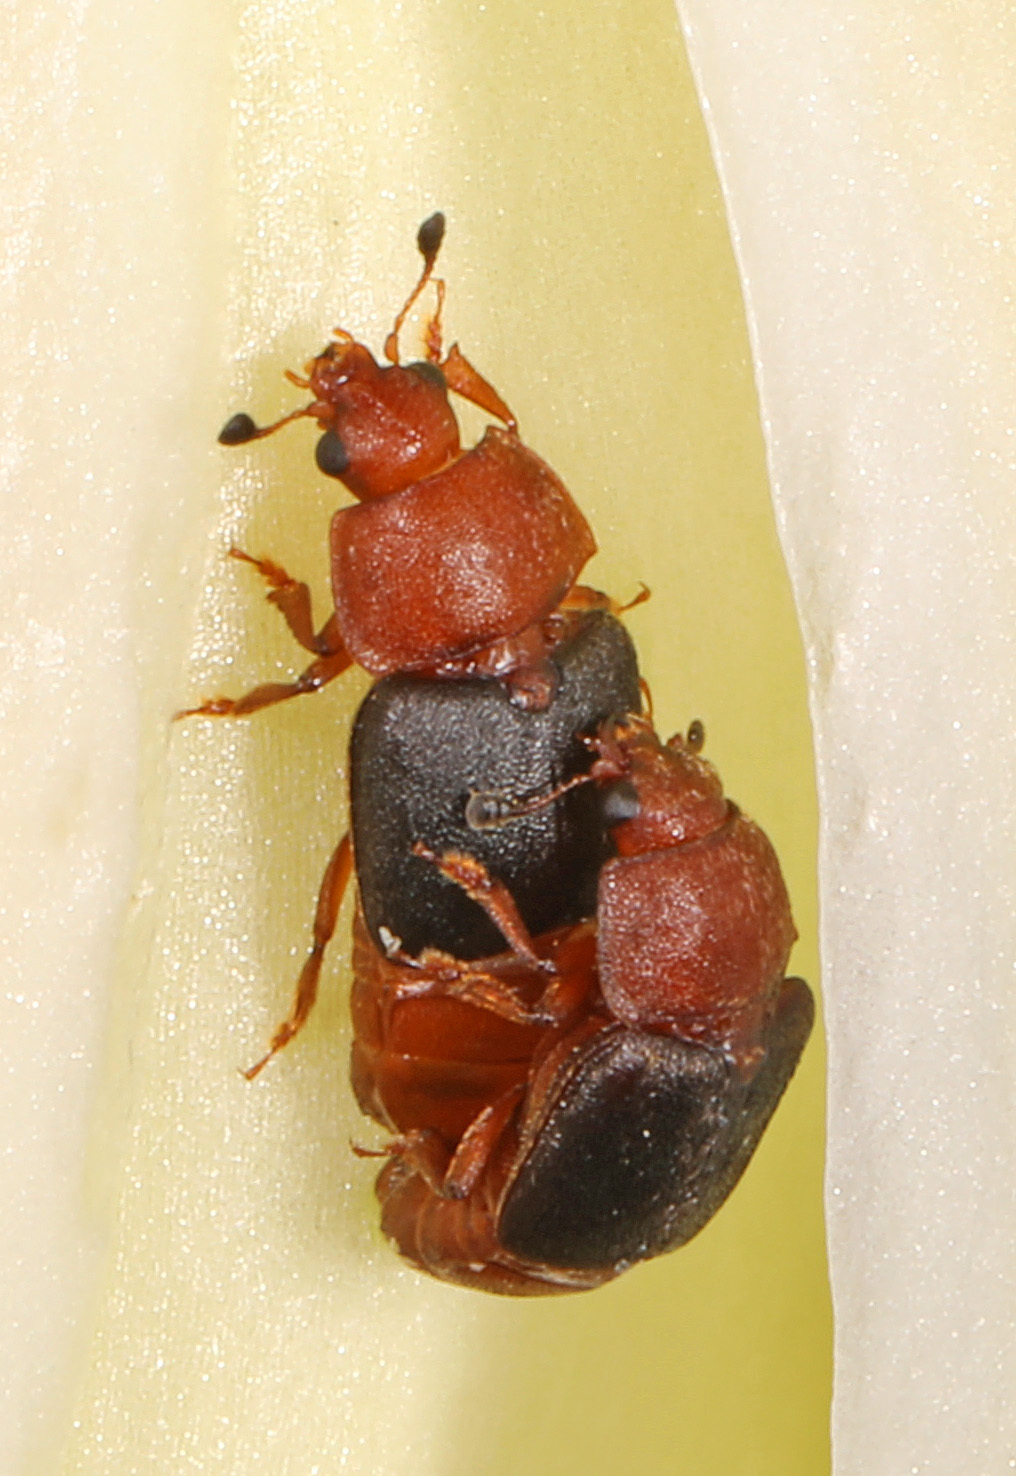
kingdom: Animalia
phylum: Arthropoda
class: Insecta
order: Coleoptera
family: Nitidulidae
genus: Carpophilus
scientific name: Carpophilus
